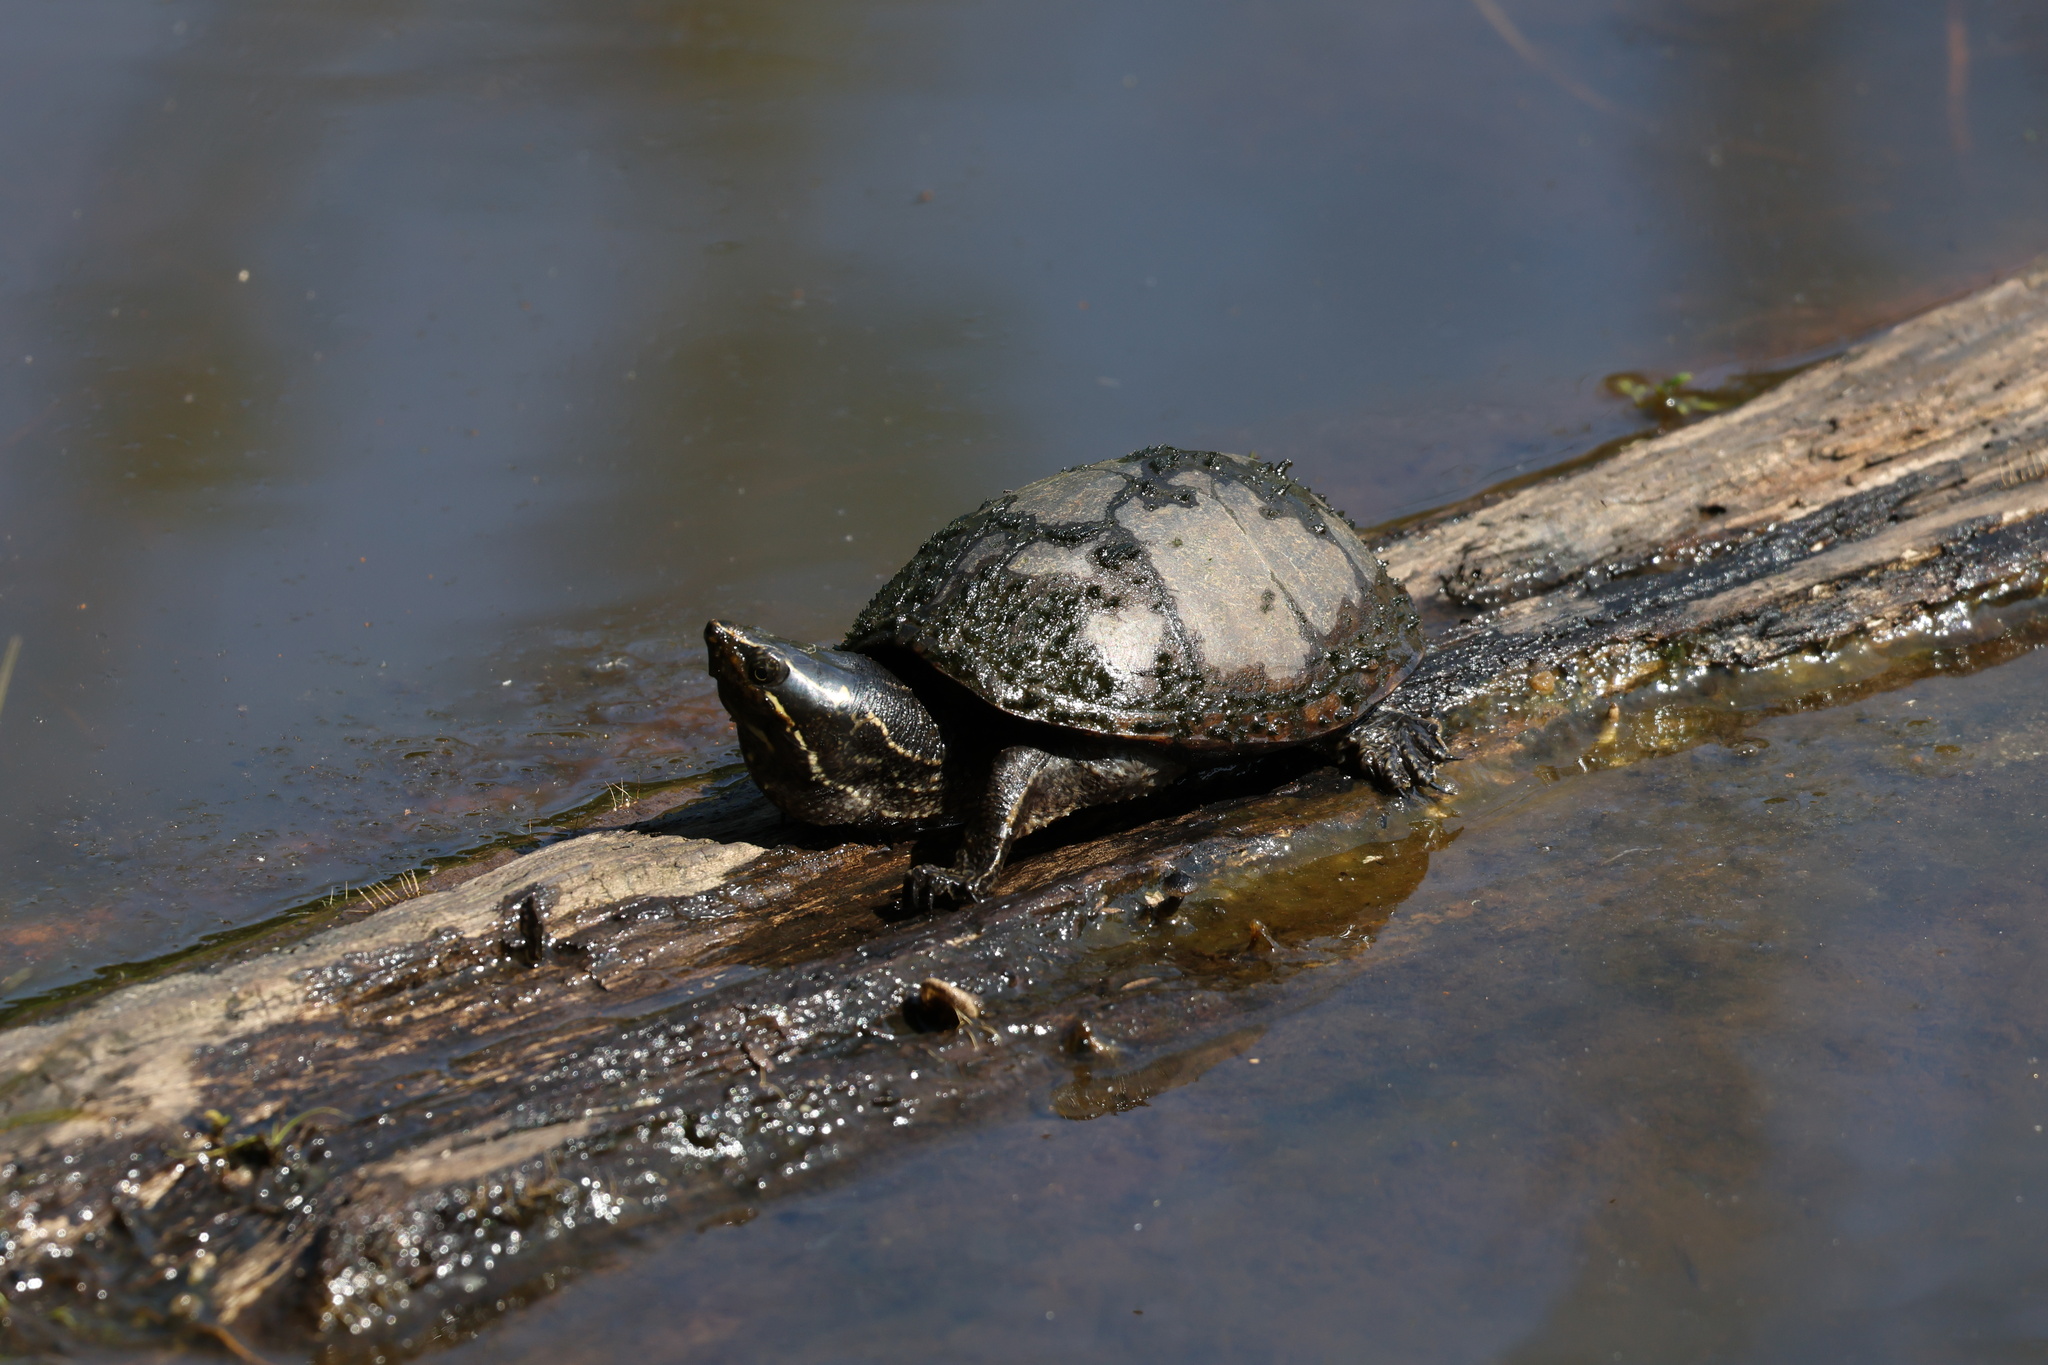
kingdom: Animalia
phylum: Chordata
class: Testudines
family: Kinosternidae
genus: Sternotherus
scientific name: Sternotherus odoratus
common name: Common musk turtle
